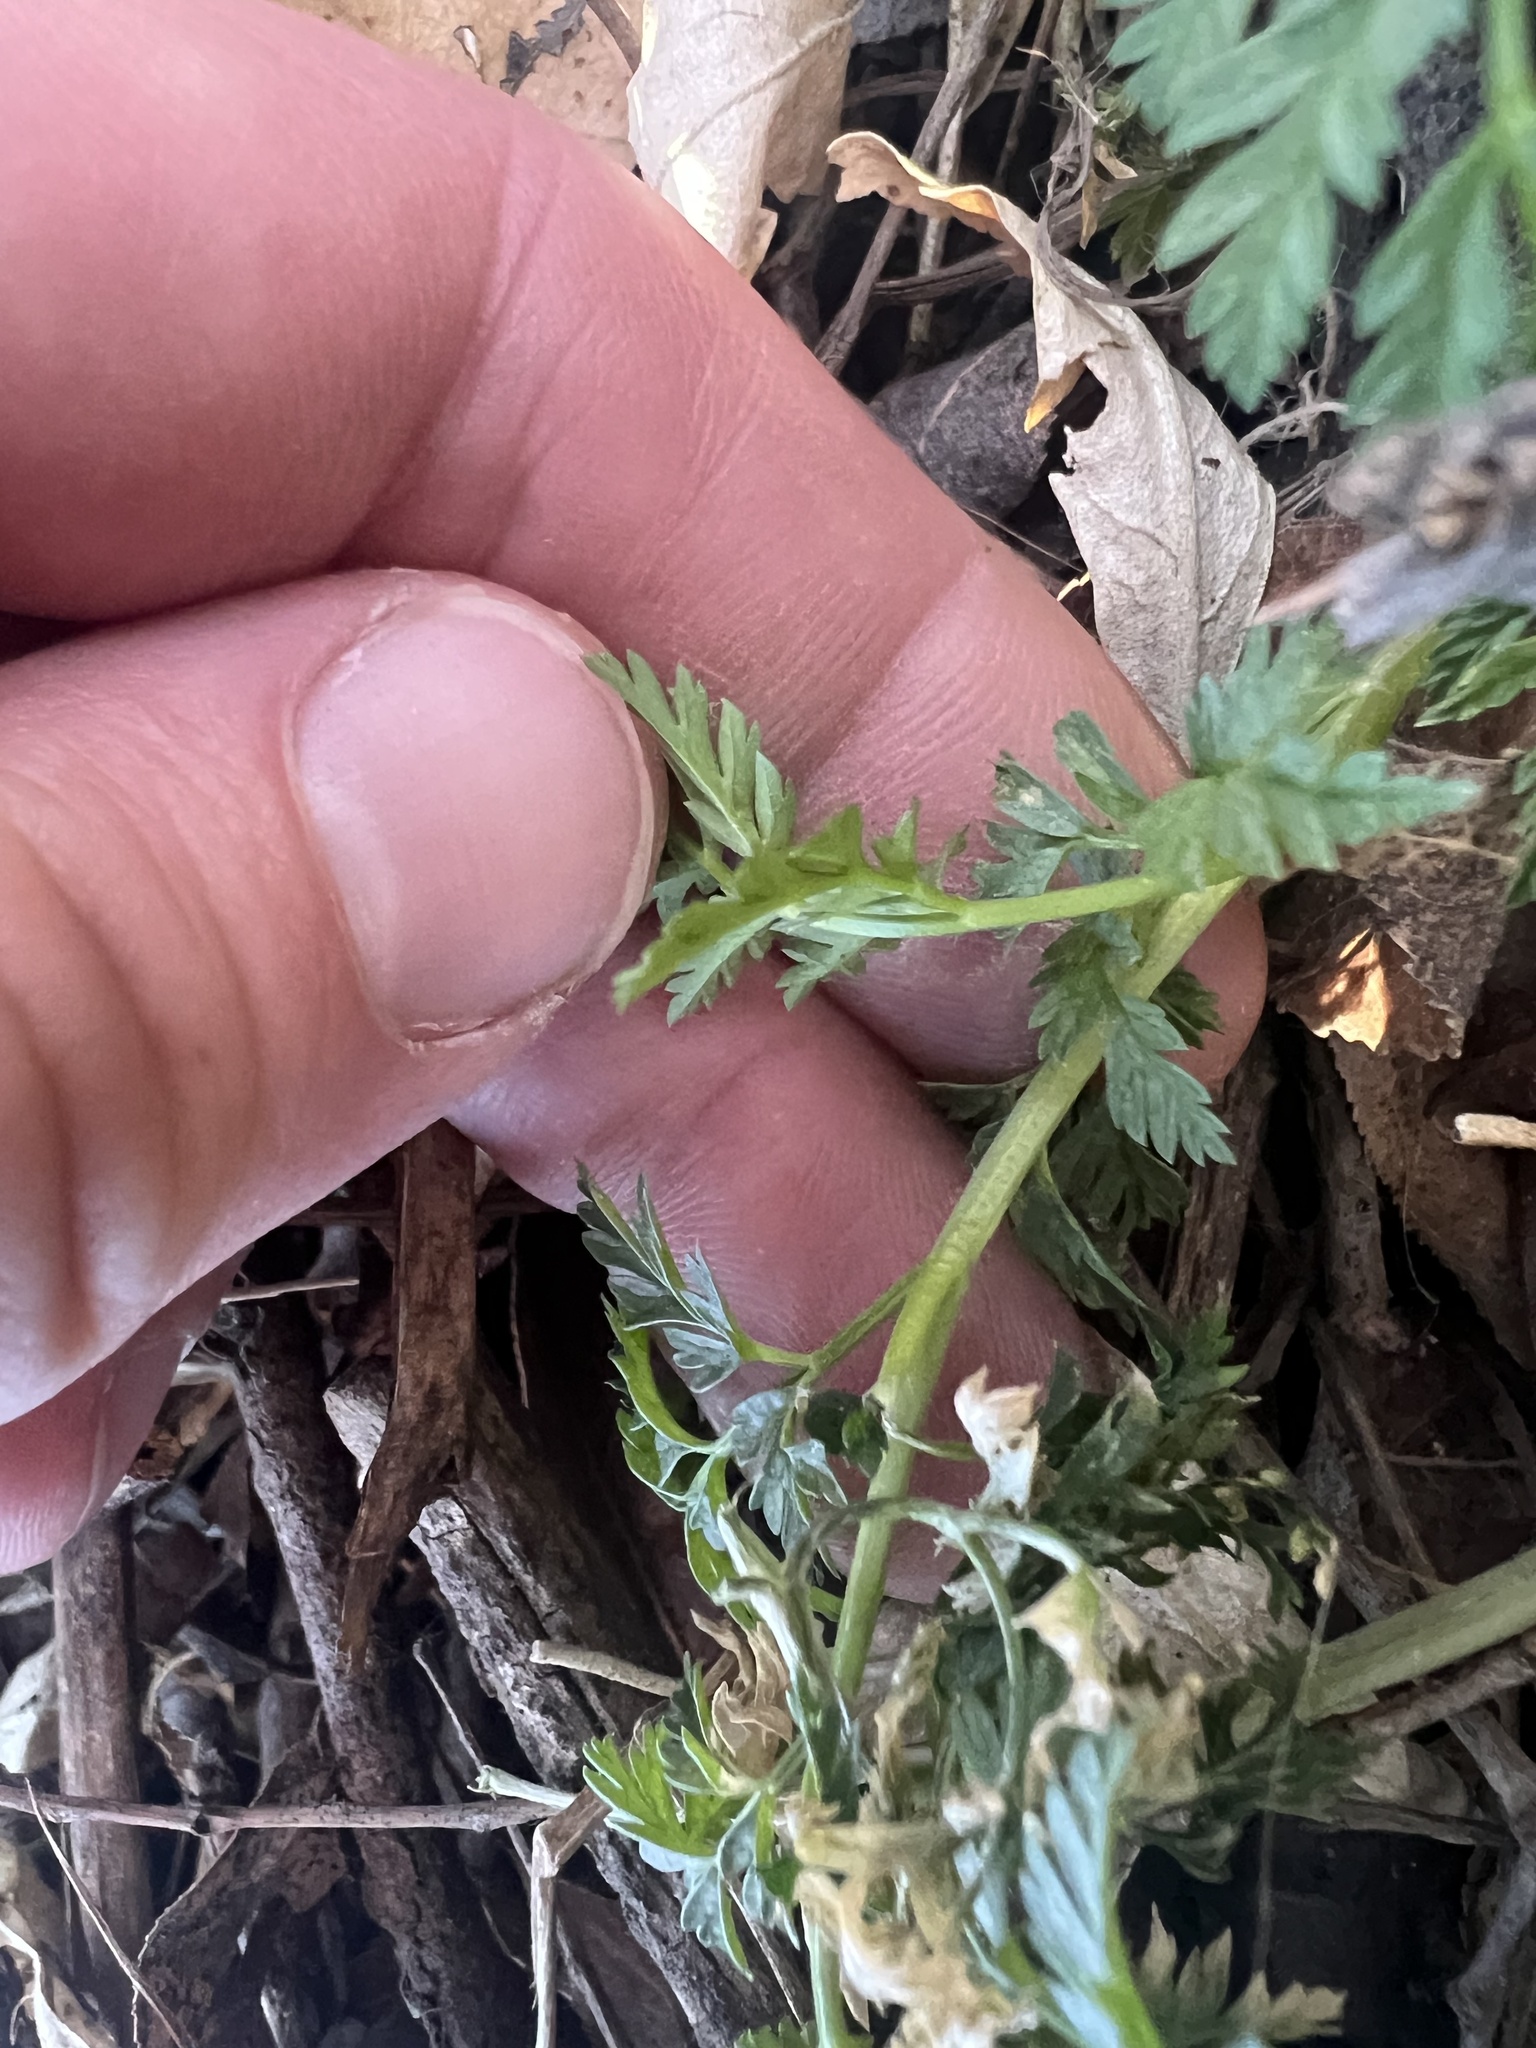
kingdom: Plantae
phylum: Tracheophyta
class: Magnoliopsida
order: Apiales
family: Apiaceae
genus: Conium
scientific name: Conium maculatum
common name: Hemlock
